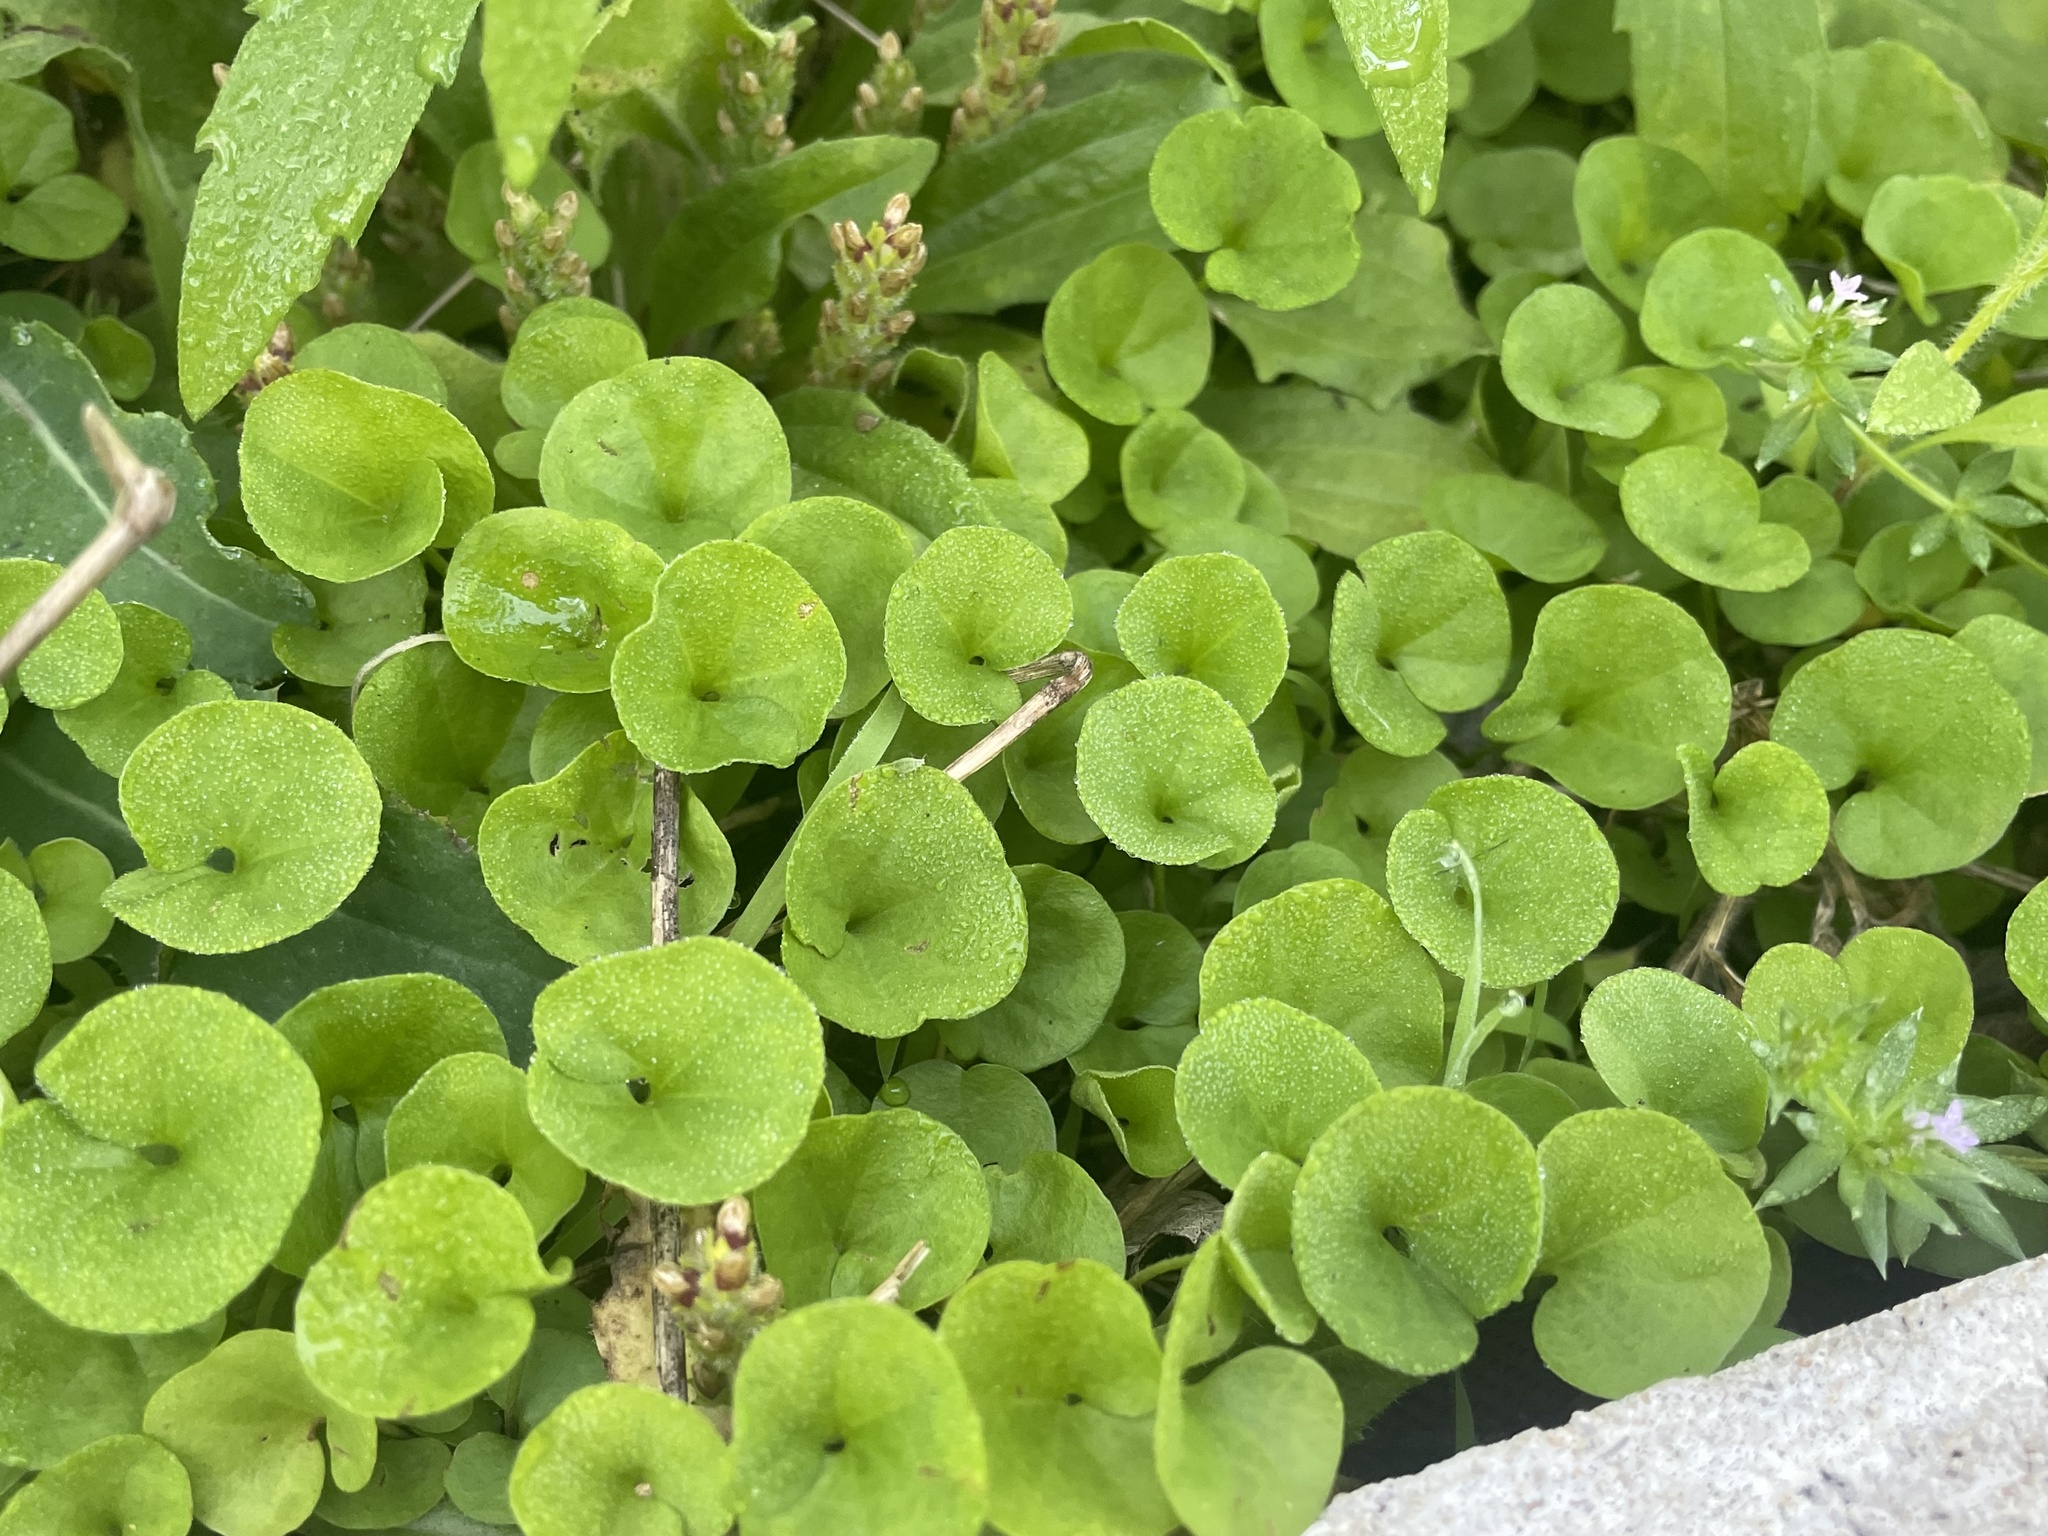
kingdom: Plantae
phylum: Tracheophyta
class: Magnoliopsida
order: Solanales
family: Convolvulaceae
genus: Dichondra
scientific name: Dichondra carolinensis
